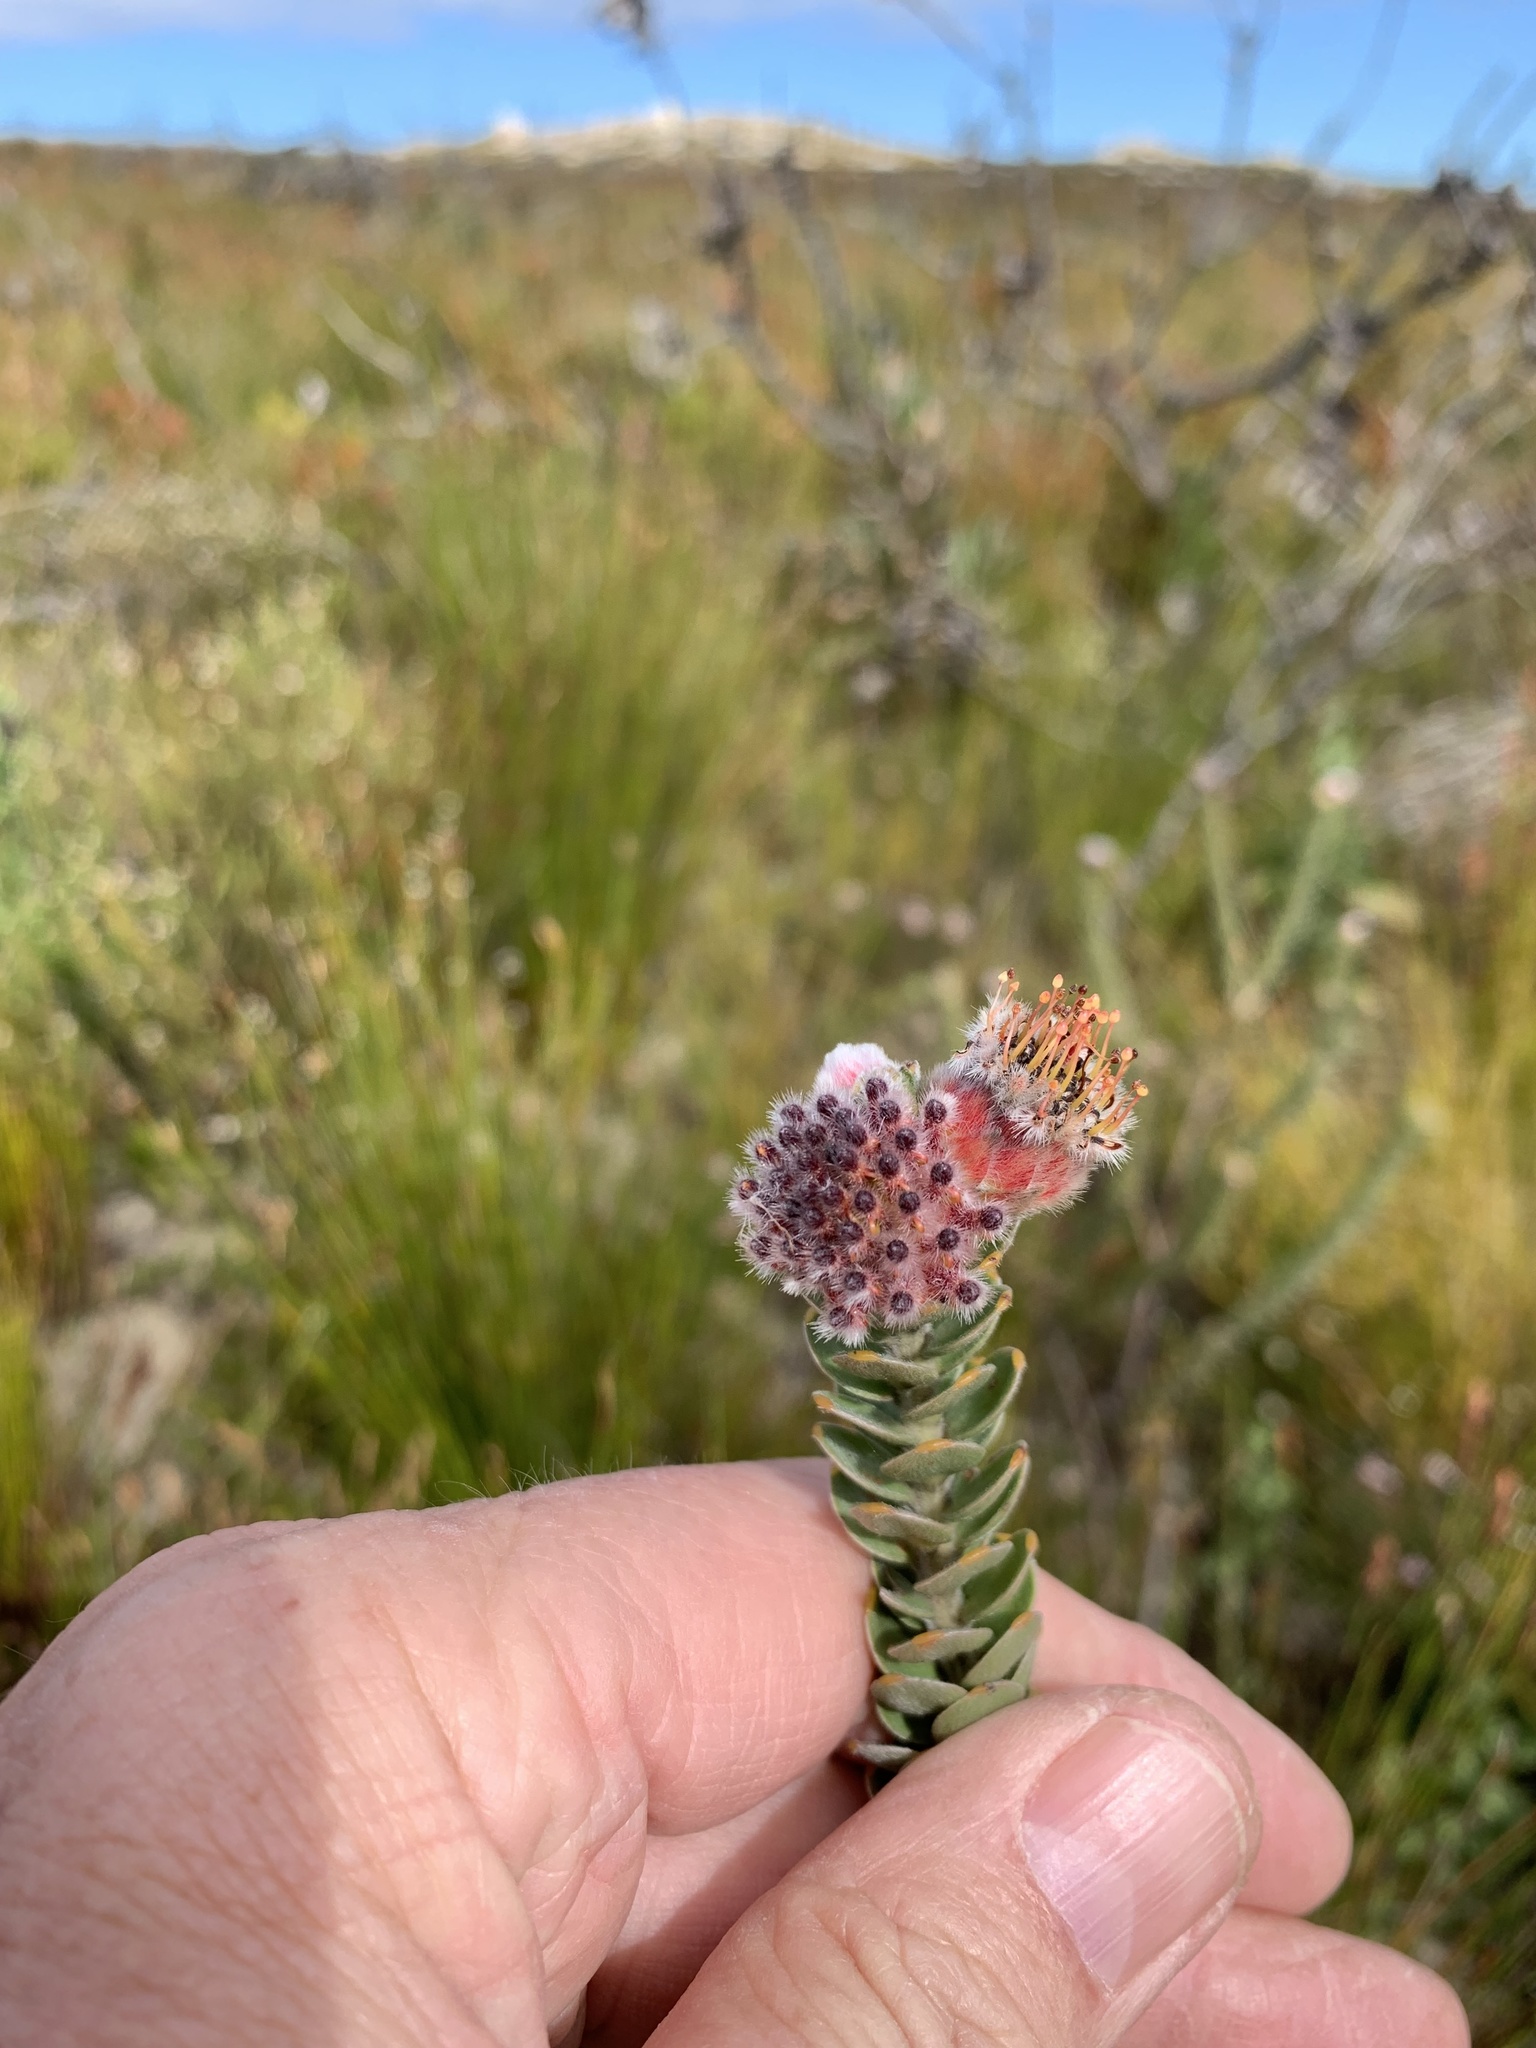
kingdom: Plantae
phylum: Tracheophyta
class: Magnoliopsida
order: Proteales
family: Proteaceae
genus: Leucospermum
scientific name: Leucospermum truncatulum
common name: Oval-leaf pincushion
